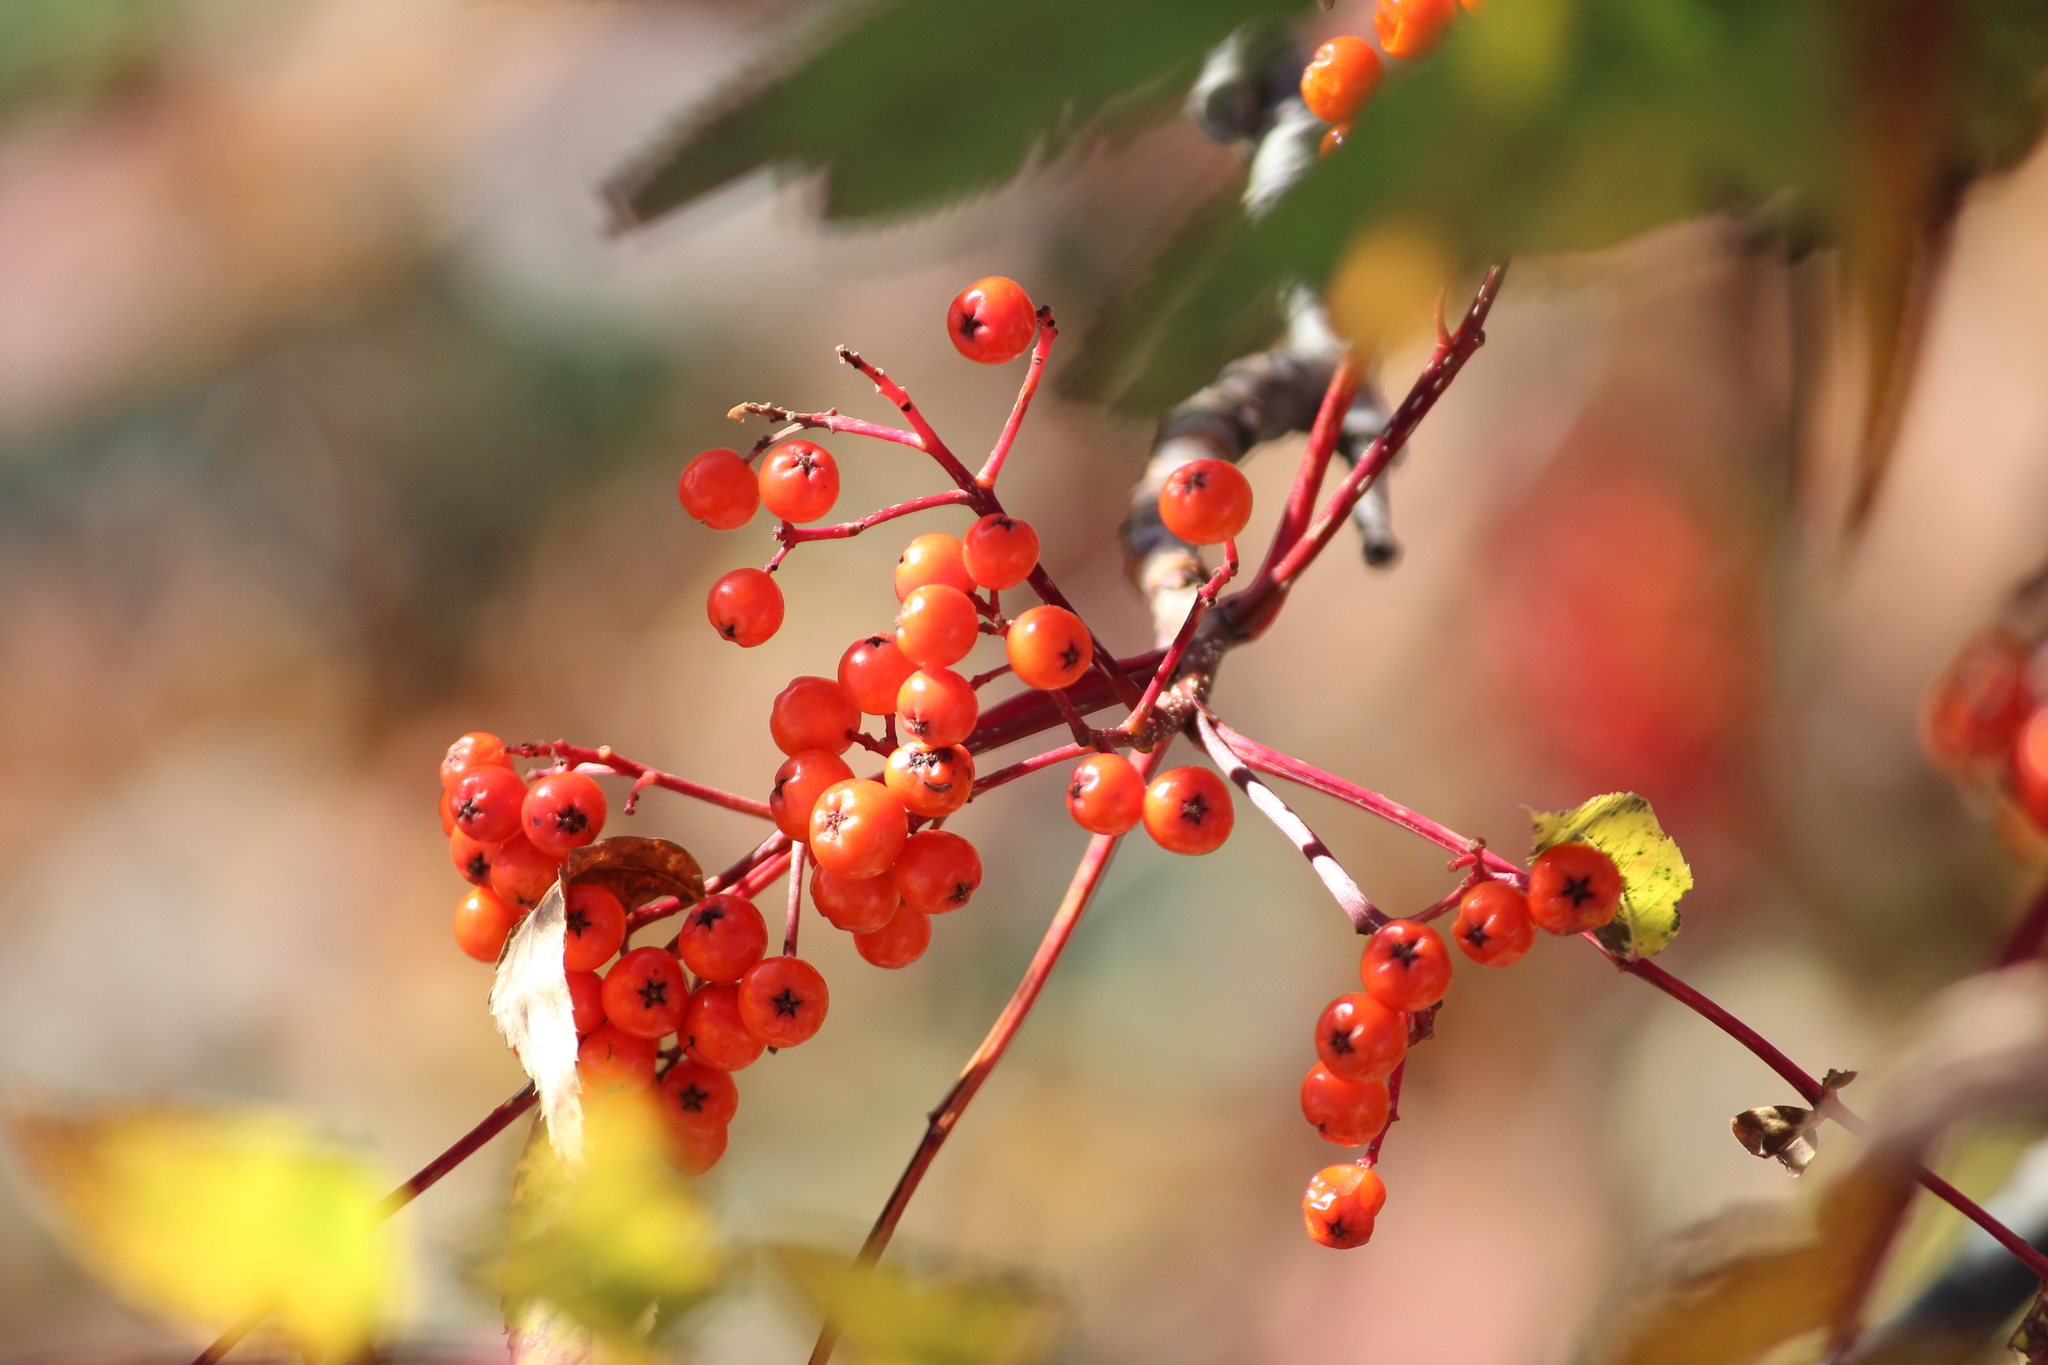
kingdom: Plantae
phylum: Tracheophyta
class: Magnoliopsida
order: Rosales
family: Rosaceae
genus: Sorbus
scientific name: Sorbus americana
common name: American mountain-ash
